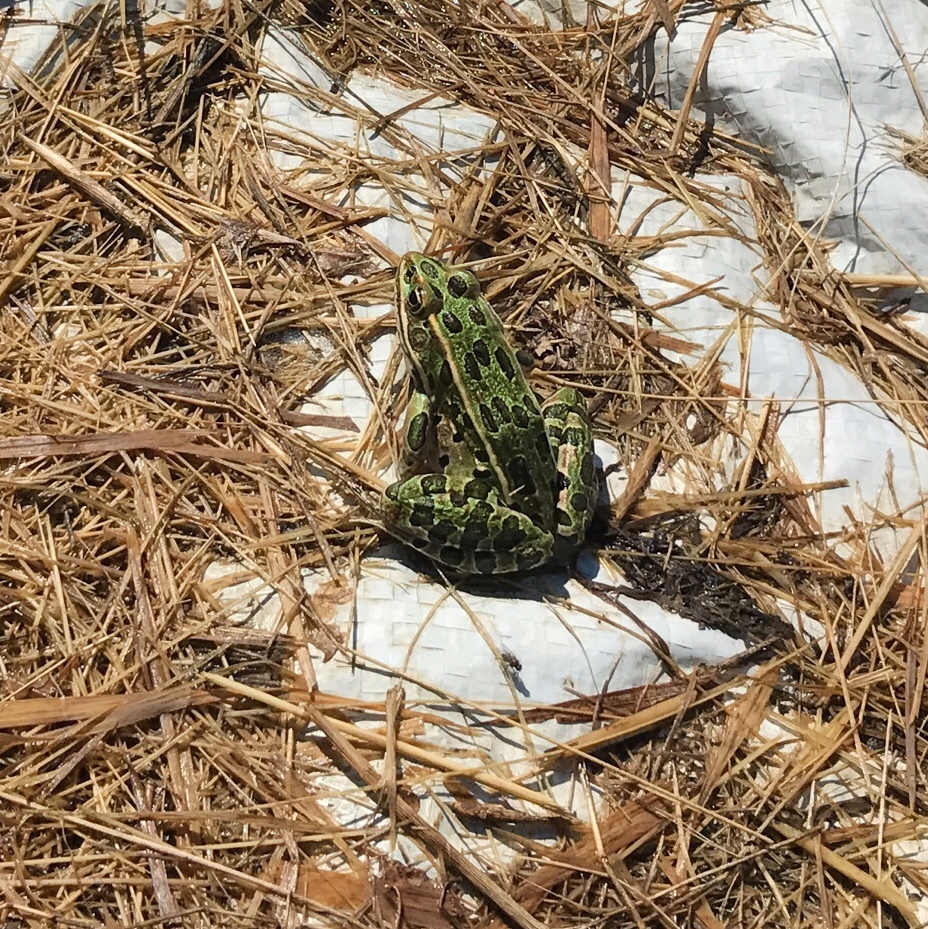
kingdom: Animalia
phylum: Chordata
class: Amphibia
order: Anura
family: Ranidae
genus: Lithobates
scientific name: Lithobates pipiens
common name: Northern leopard frog
